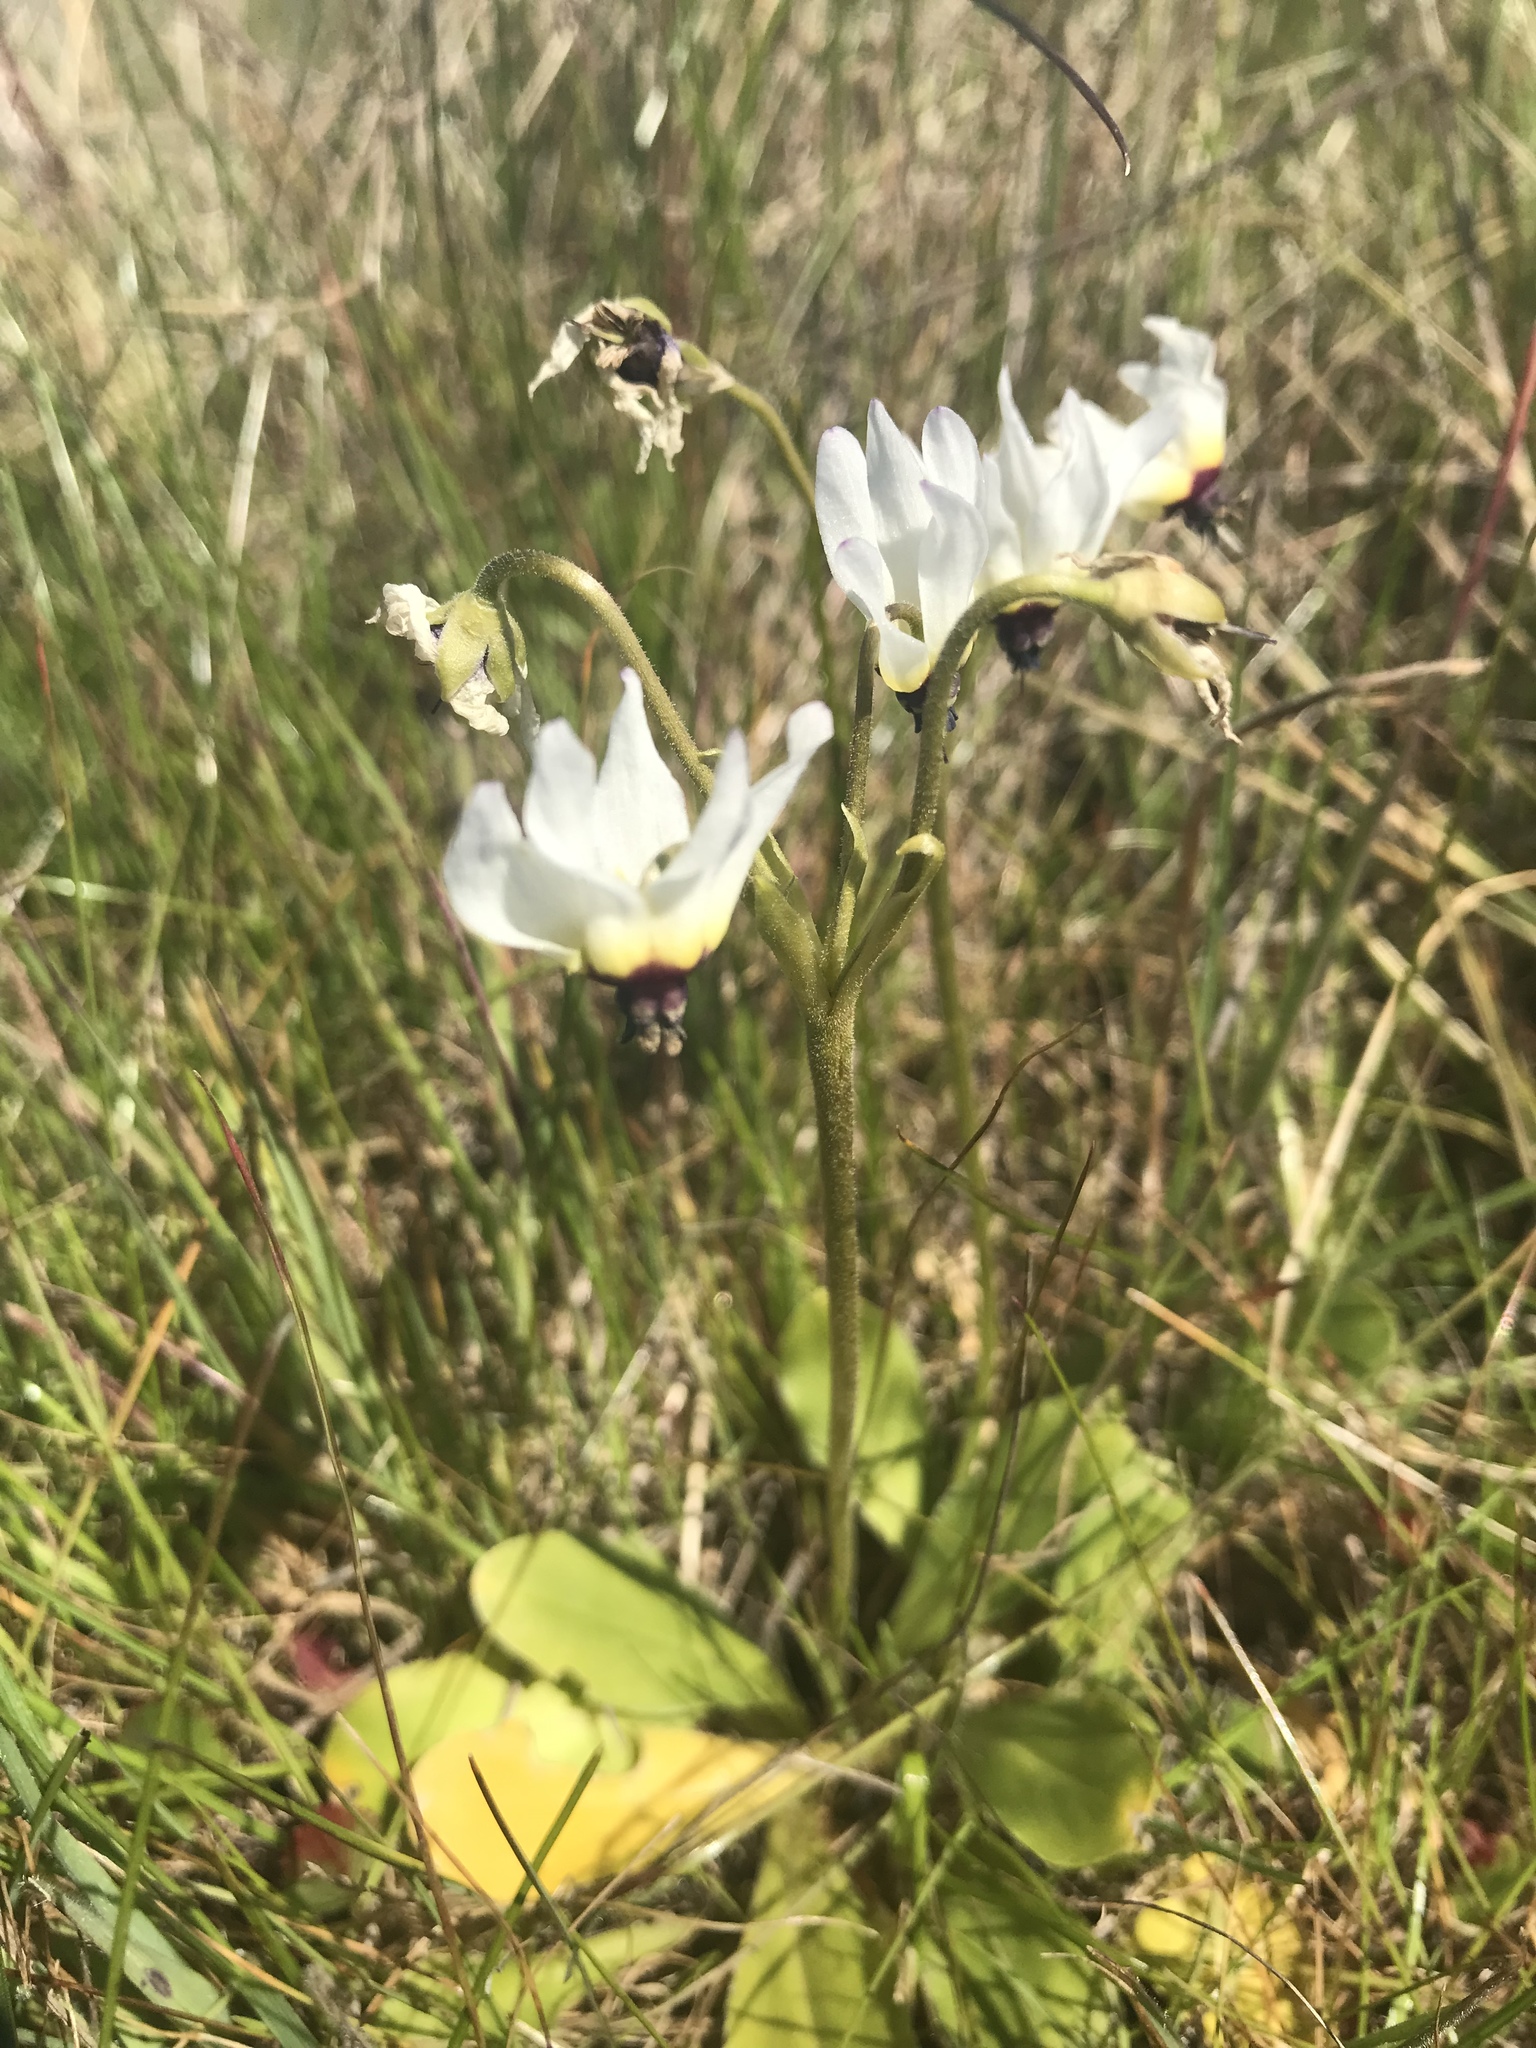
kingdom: Plantae
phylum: Tracheophyta
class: Magnoliopsida
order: Ericales
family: Primulaceae
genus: Dodecatheon
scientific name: Dodecatheon clevelandii
